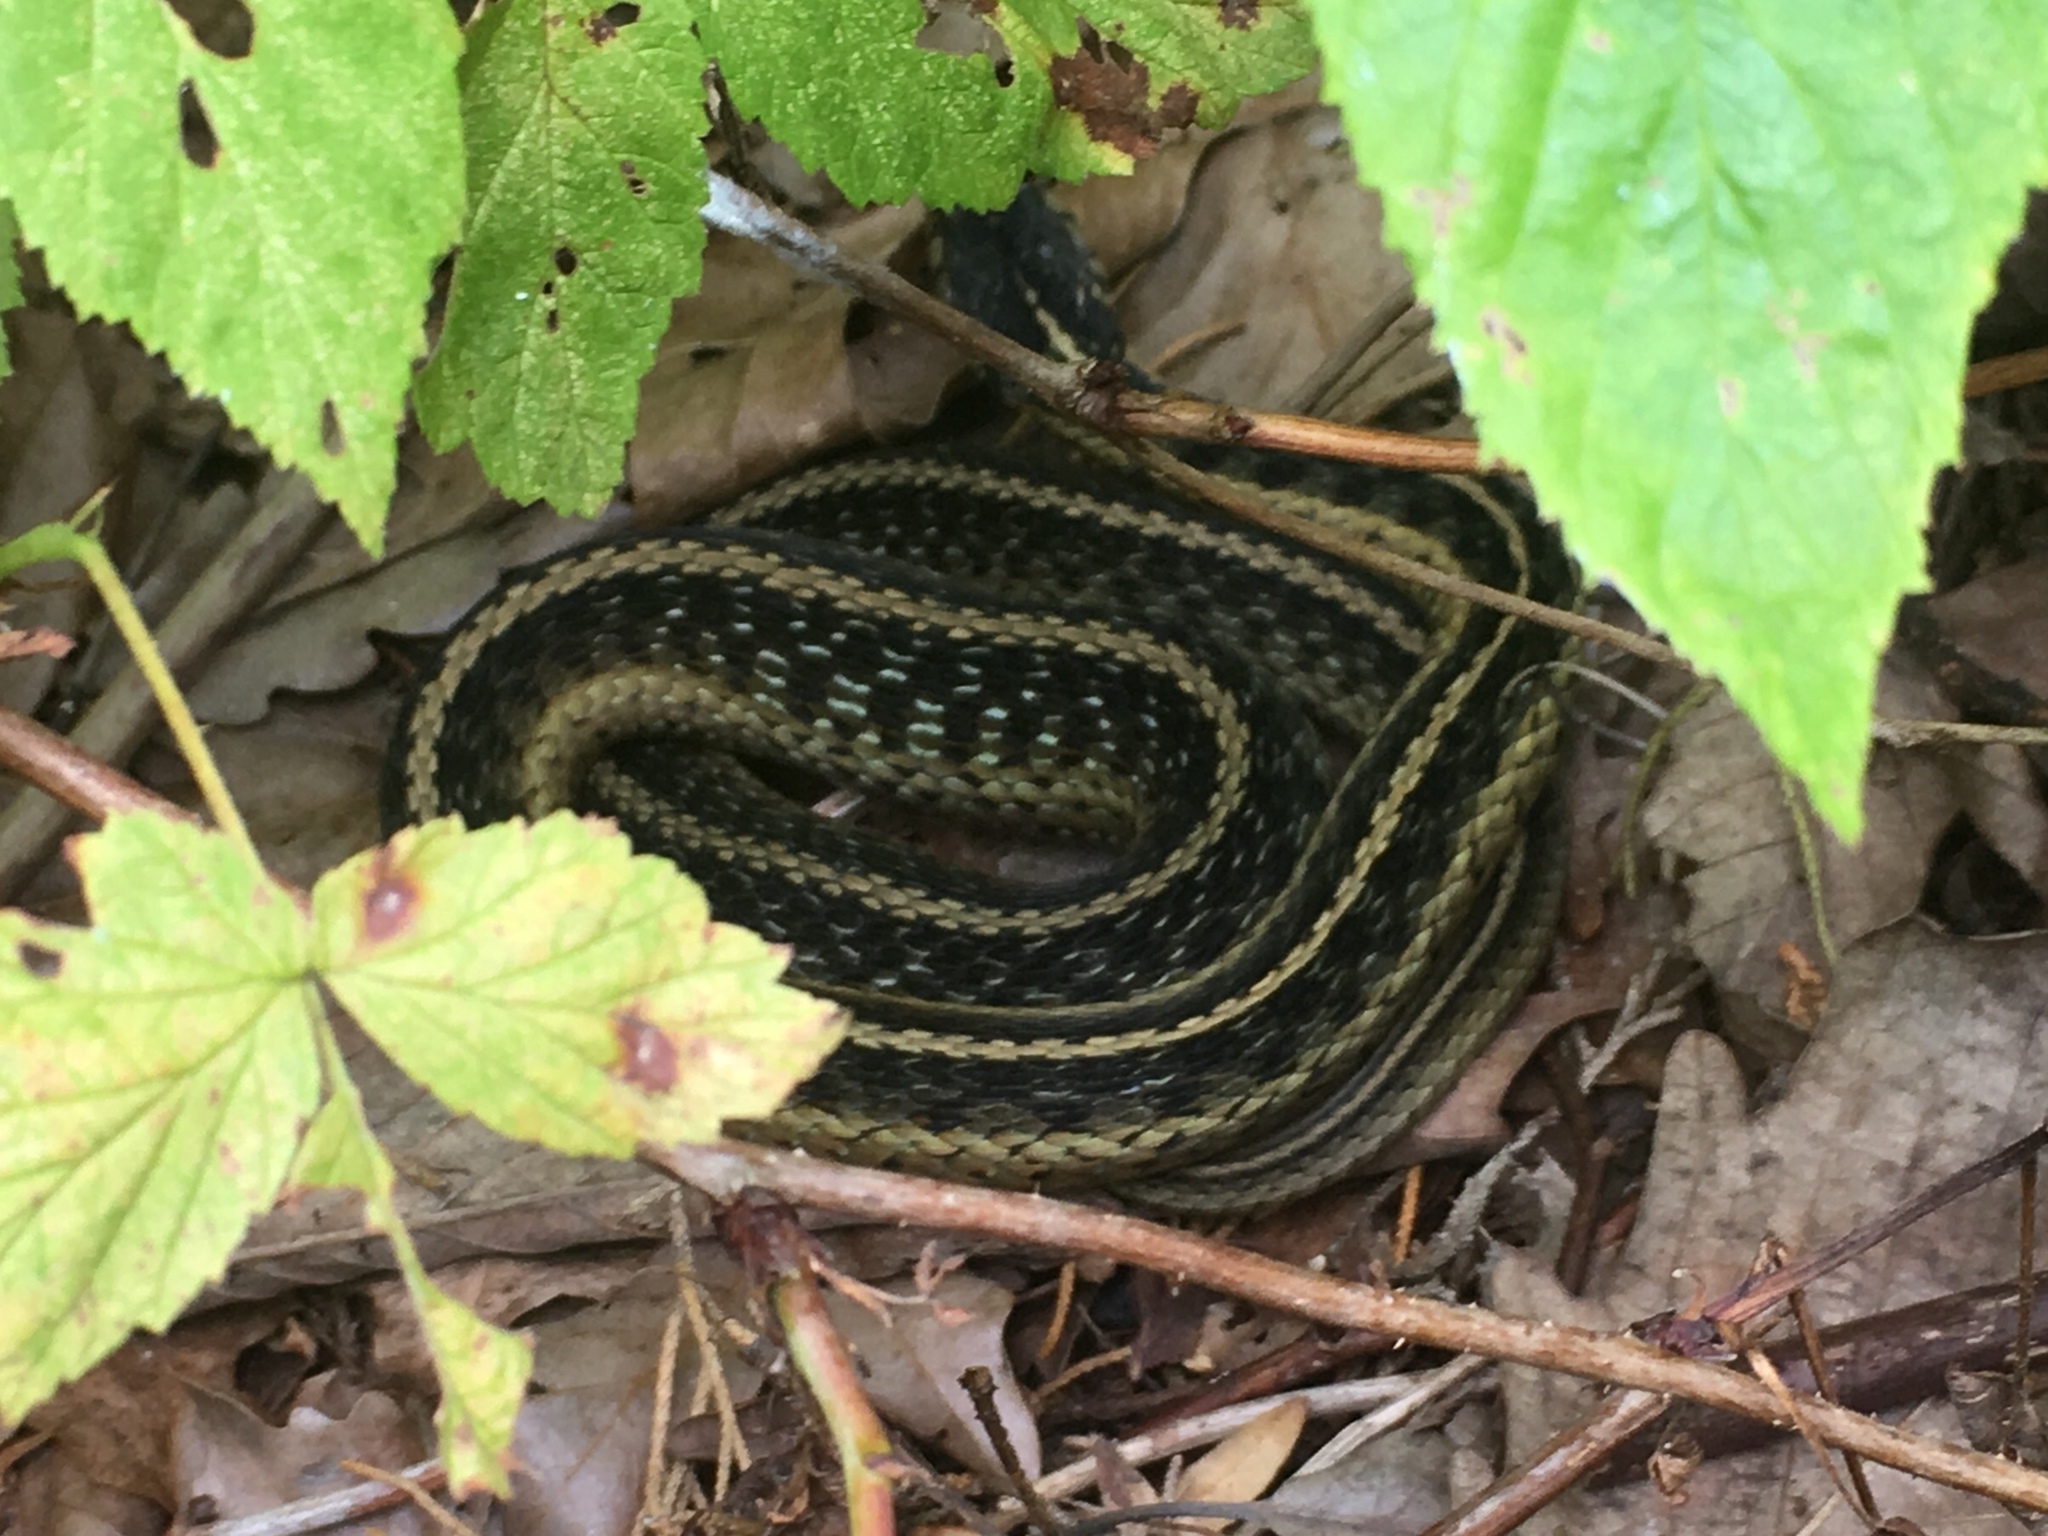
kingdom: Animalia
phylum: Chordata
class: Squamata
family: Colubridae
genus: Thamnophis
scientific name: Thamnophis sirtalis
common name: Common garter snake
